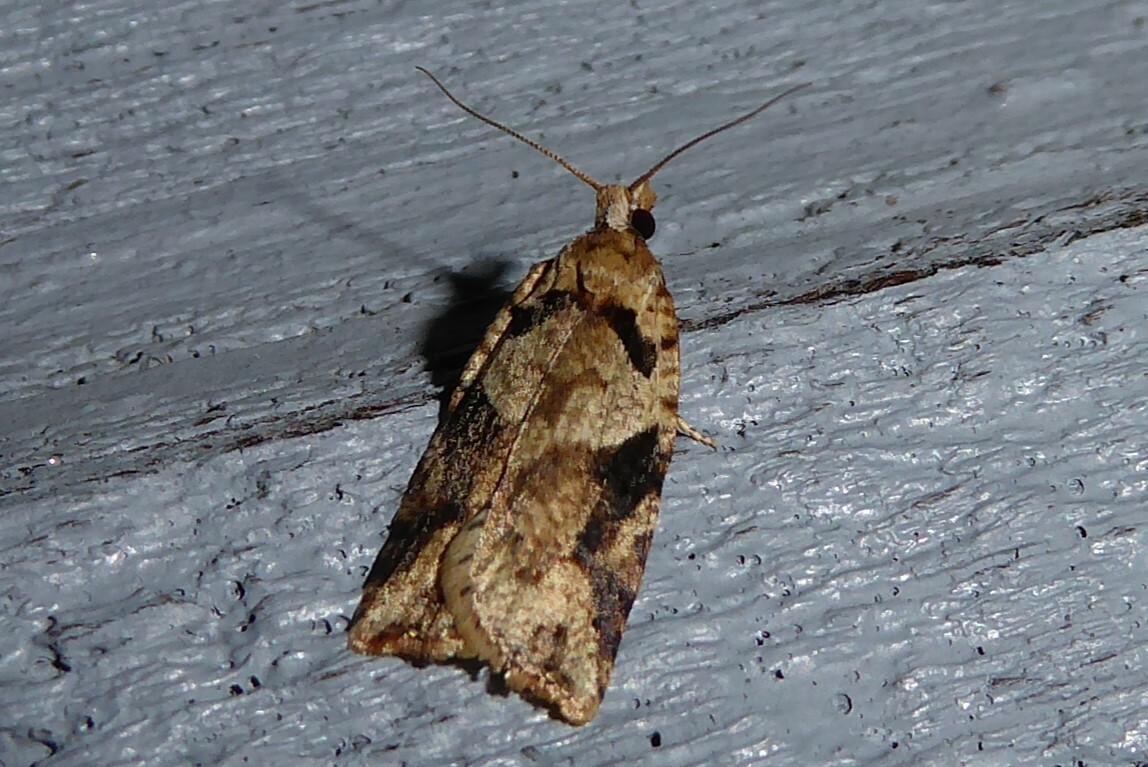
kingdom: Animalia
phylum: Arthropoda
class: Insecta
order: Lepidoptera
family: Tortricidae
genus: Ctenopseustis
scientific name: Ctenopseustis obliquana
